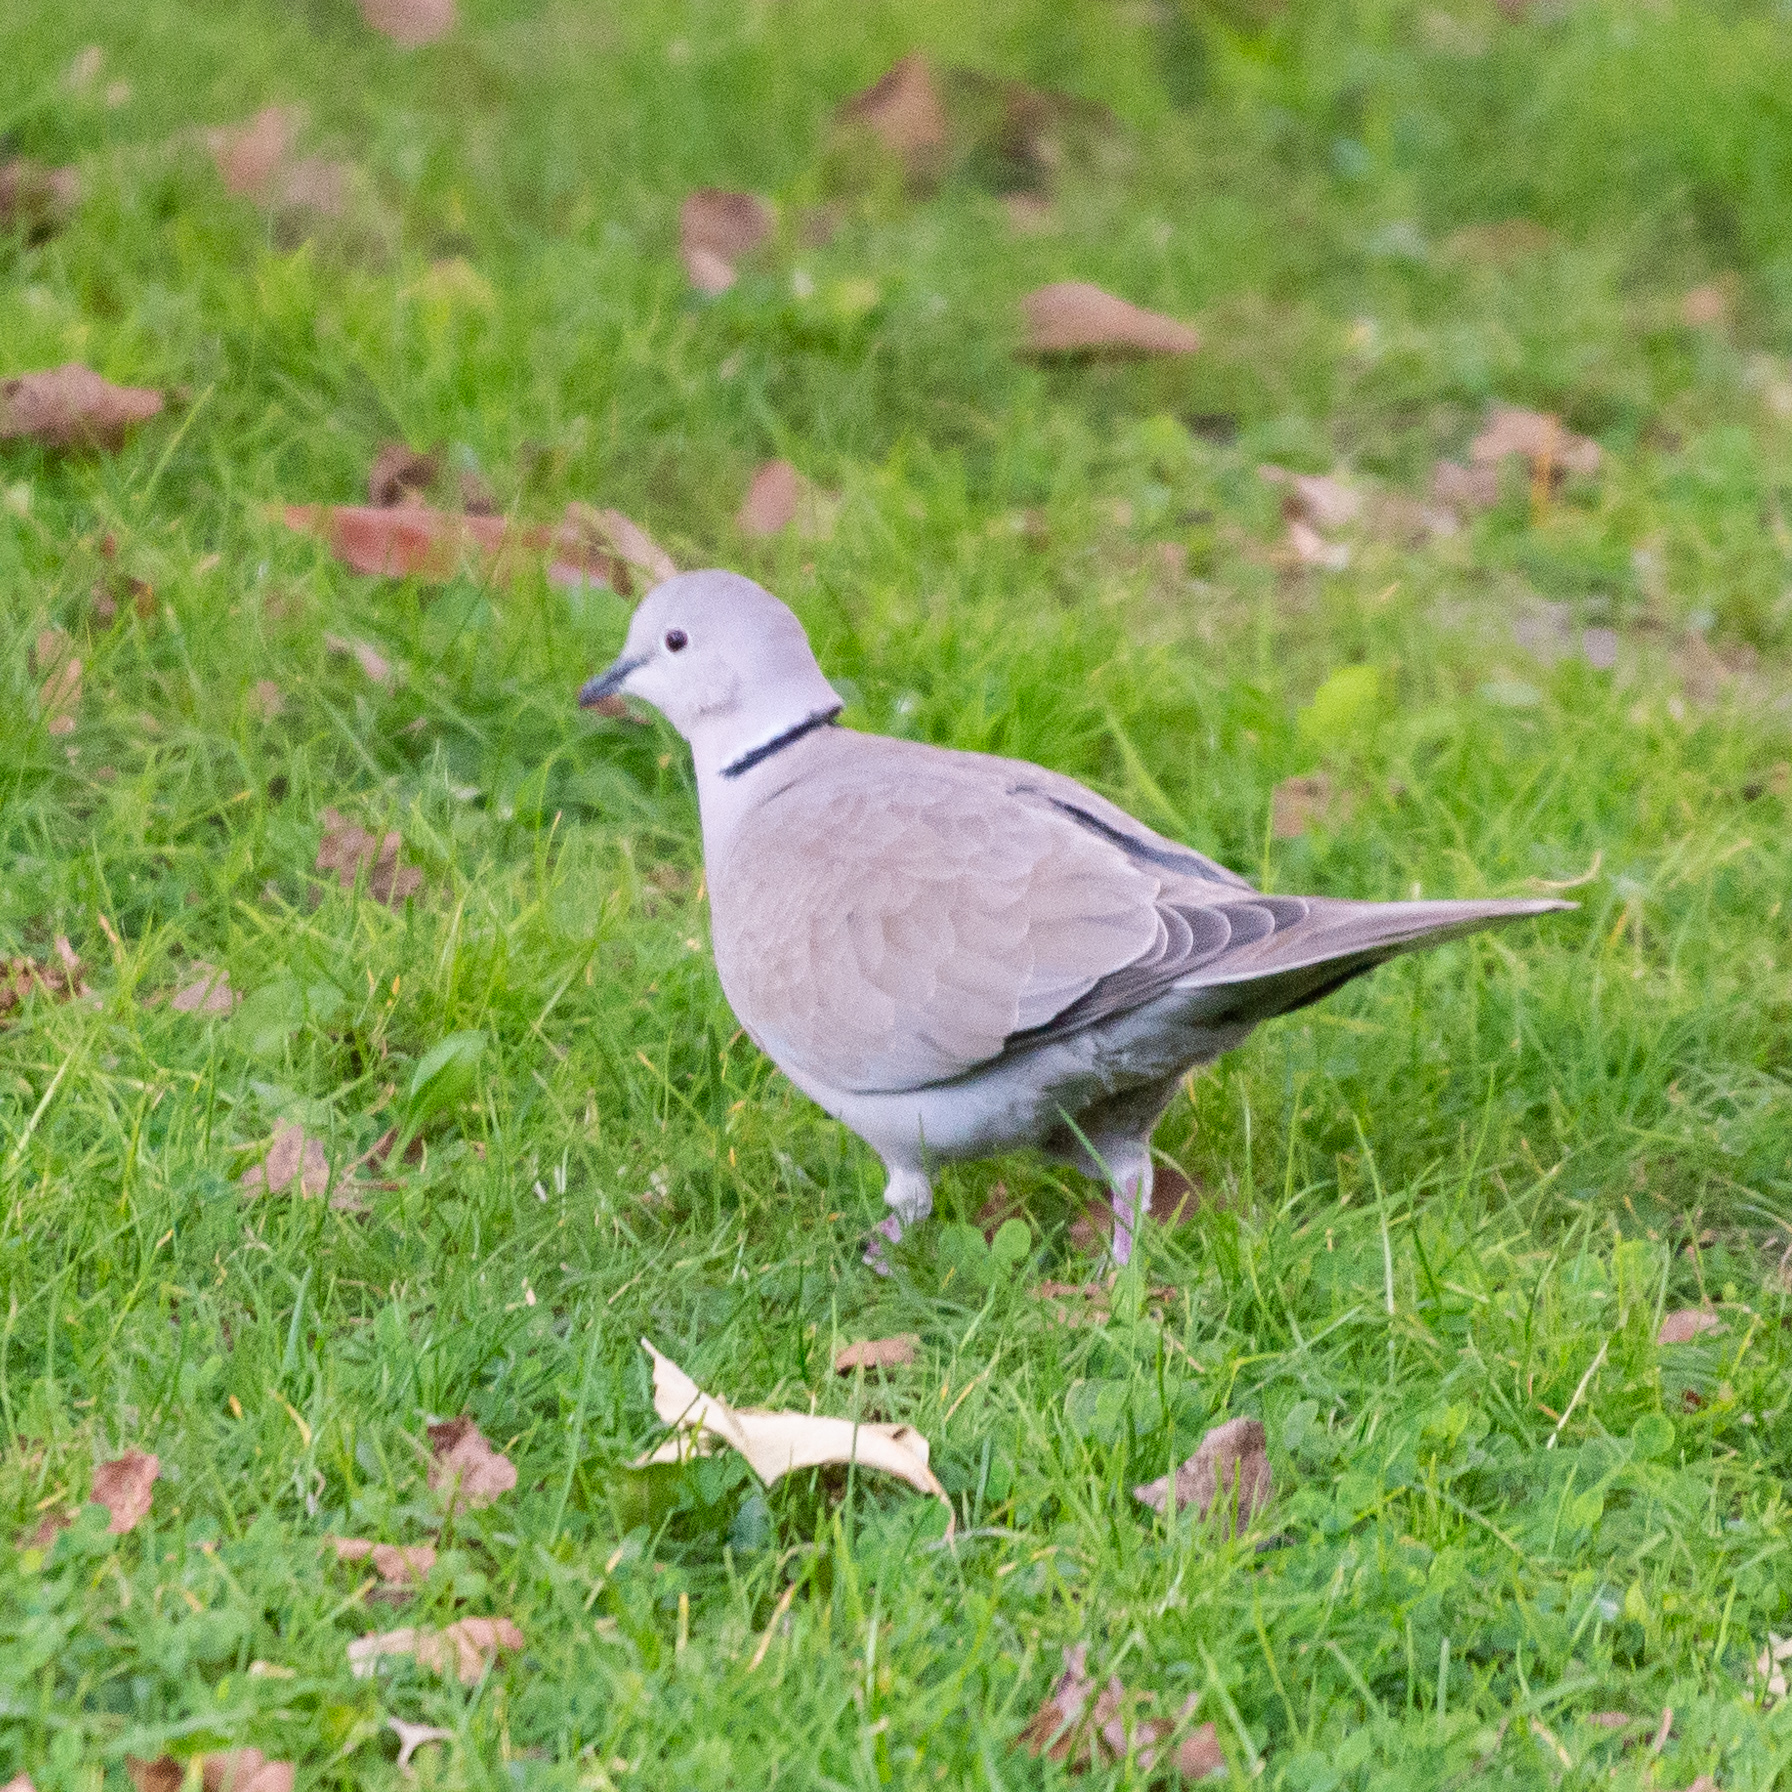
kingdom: Animalia
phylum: Chordata
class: Aves
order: Columbiformes
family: Columbidae
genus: Streptopelia
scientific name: Streptopelia decaocto
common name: Eurasian collared dove
